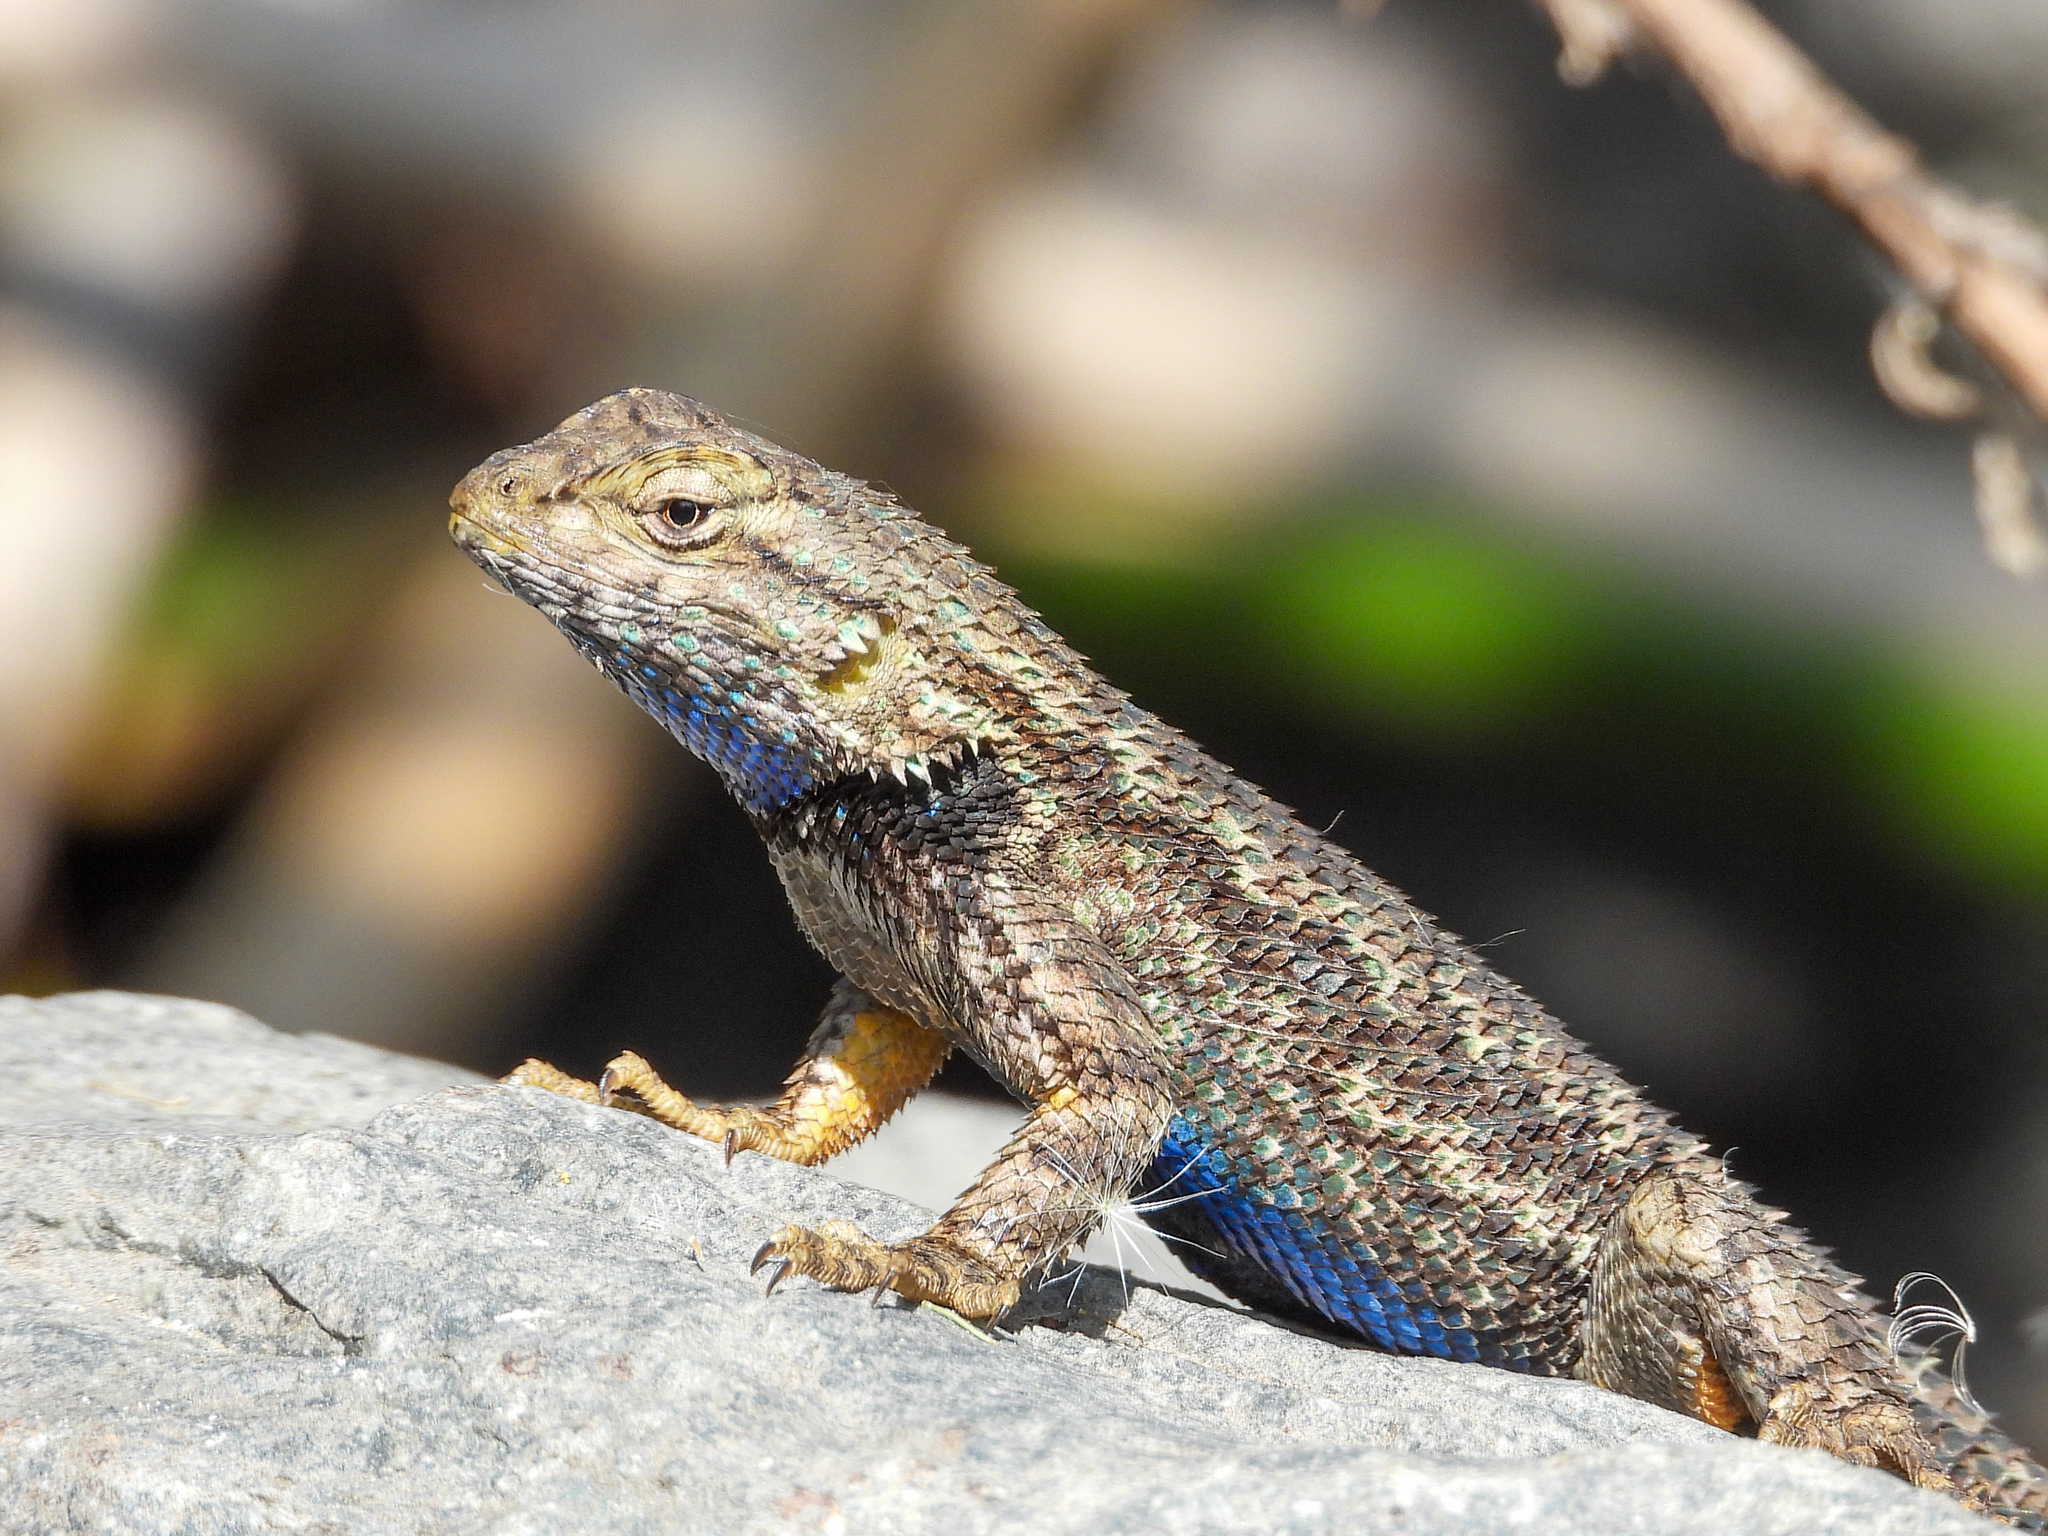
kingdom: Animalia
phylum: Chordata
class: Squamata
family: Phrynosomatidae
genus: Sceloporus
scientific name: Sceloporus occidentalis
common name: Western fence lizard
